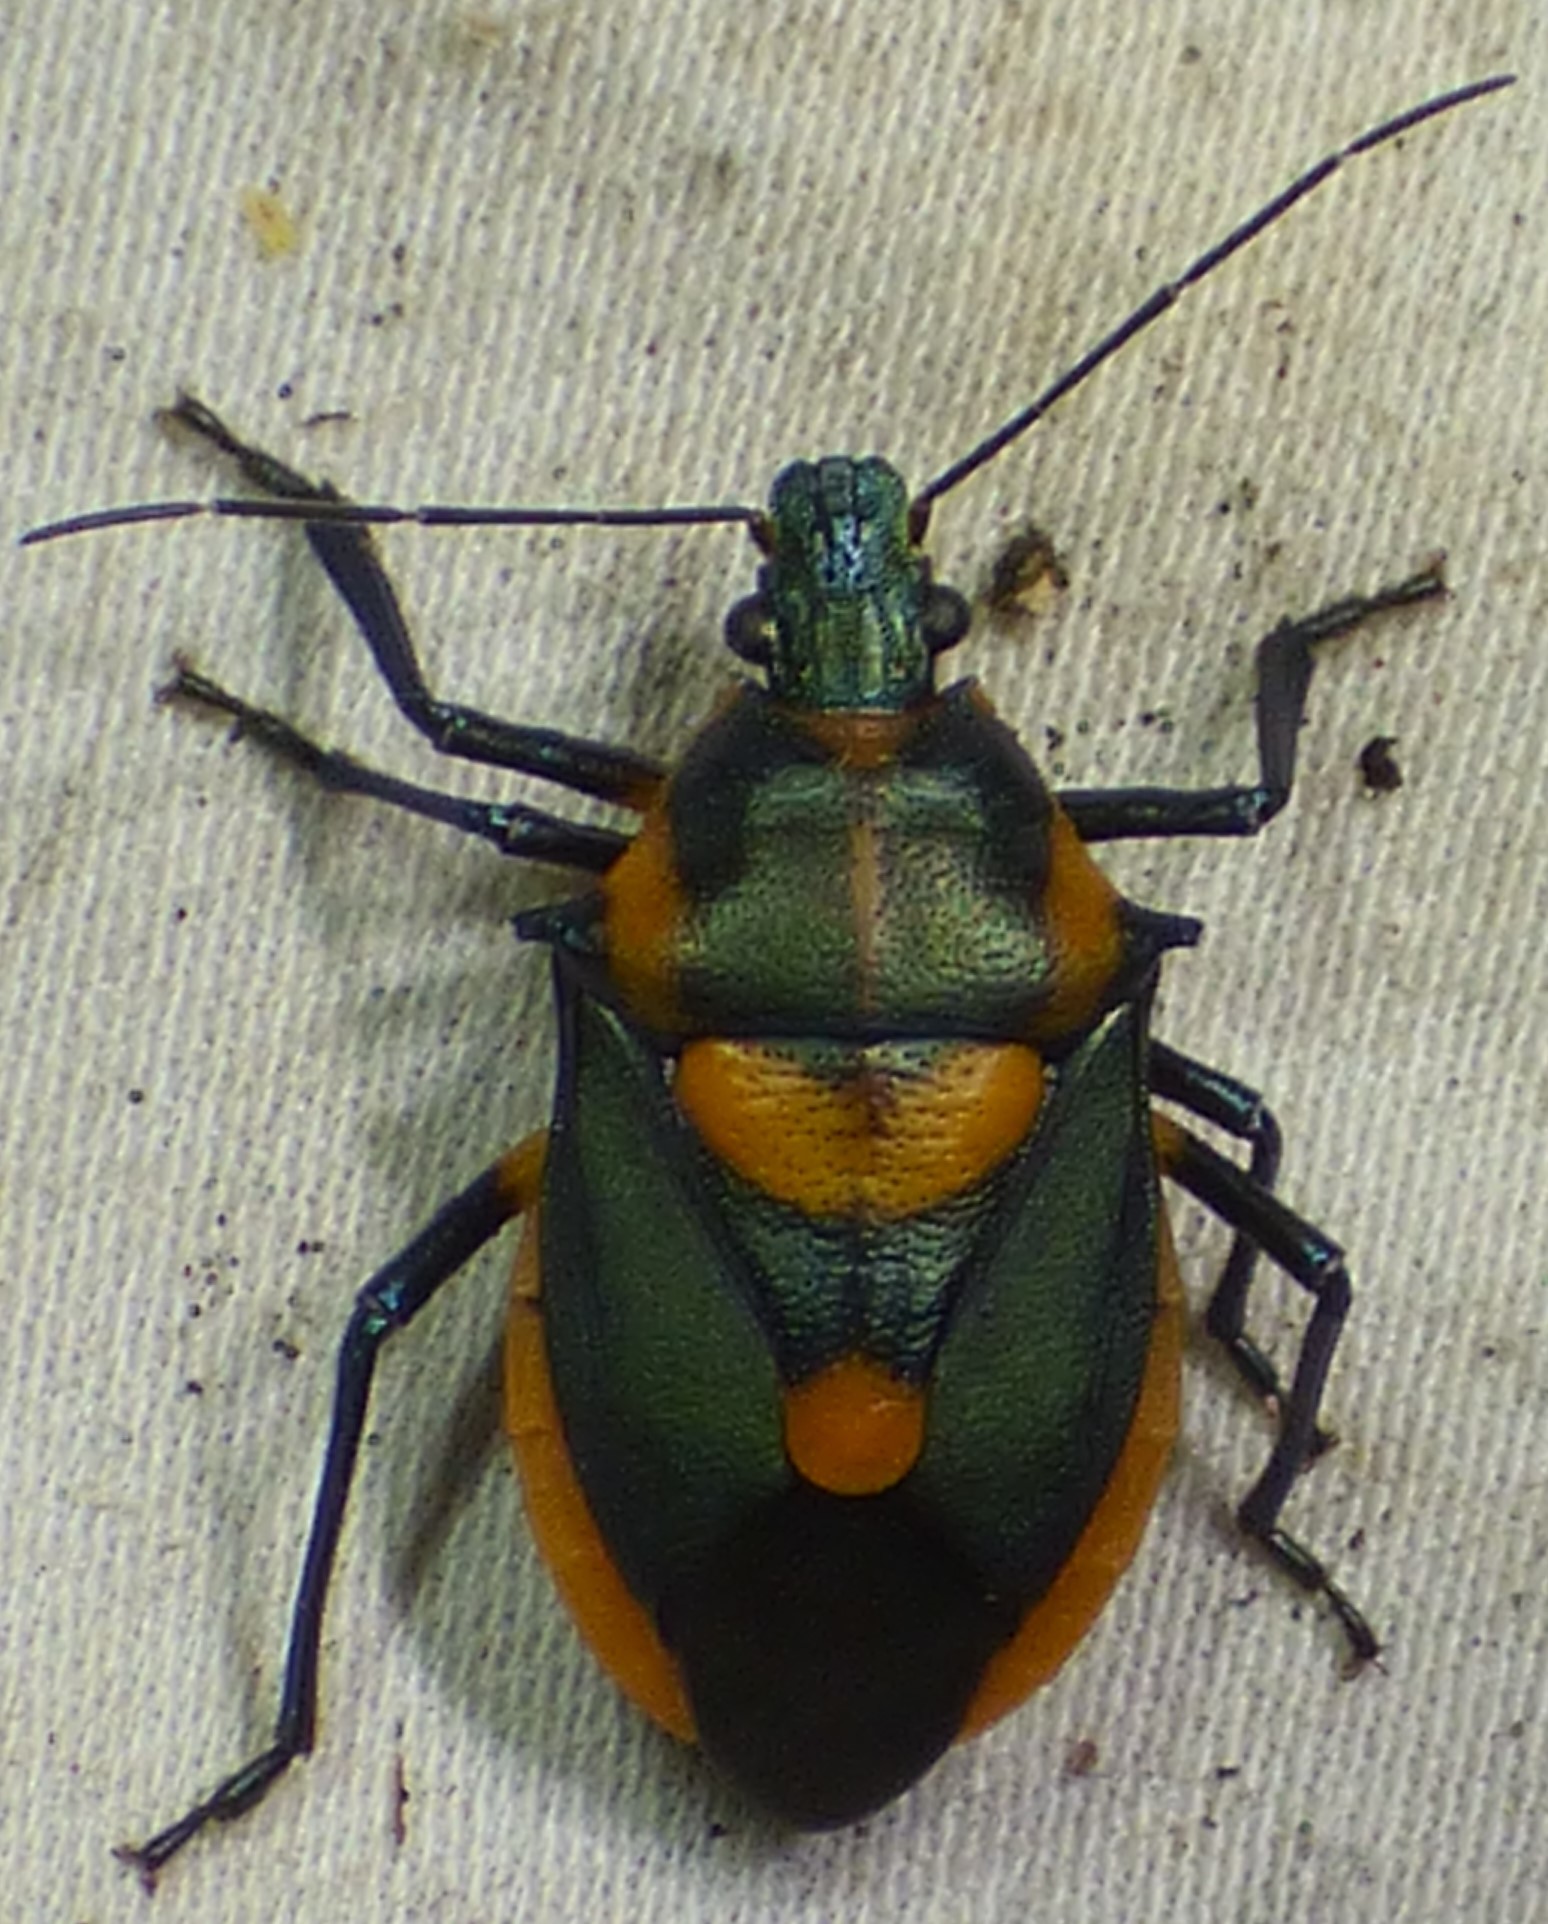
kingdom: Animalia
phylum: Arthropoda
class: Insecta
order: Hemiptera
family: Pentatomidae
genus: Euthyrhynchus
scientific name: Euthyrhynchus floridanus
